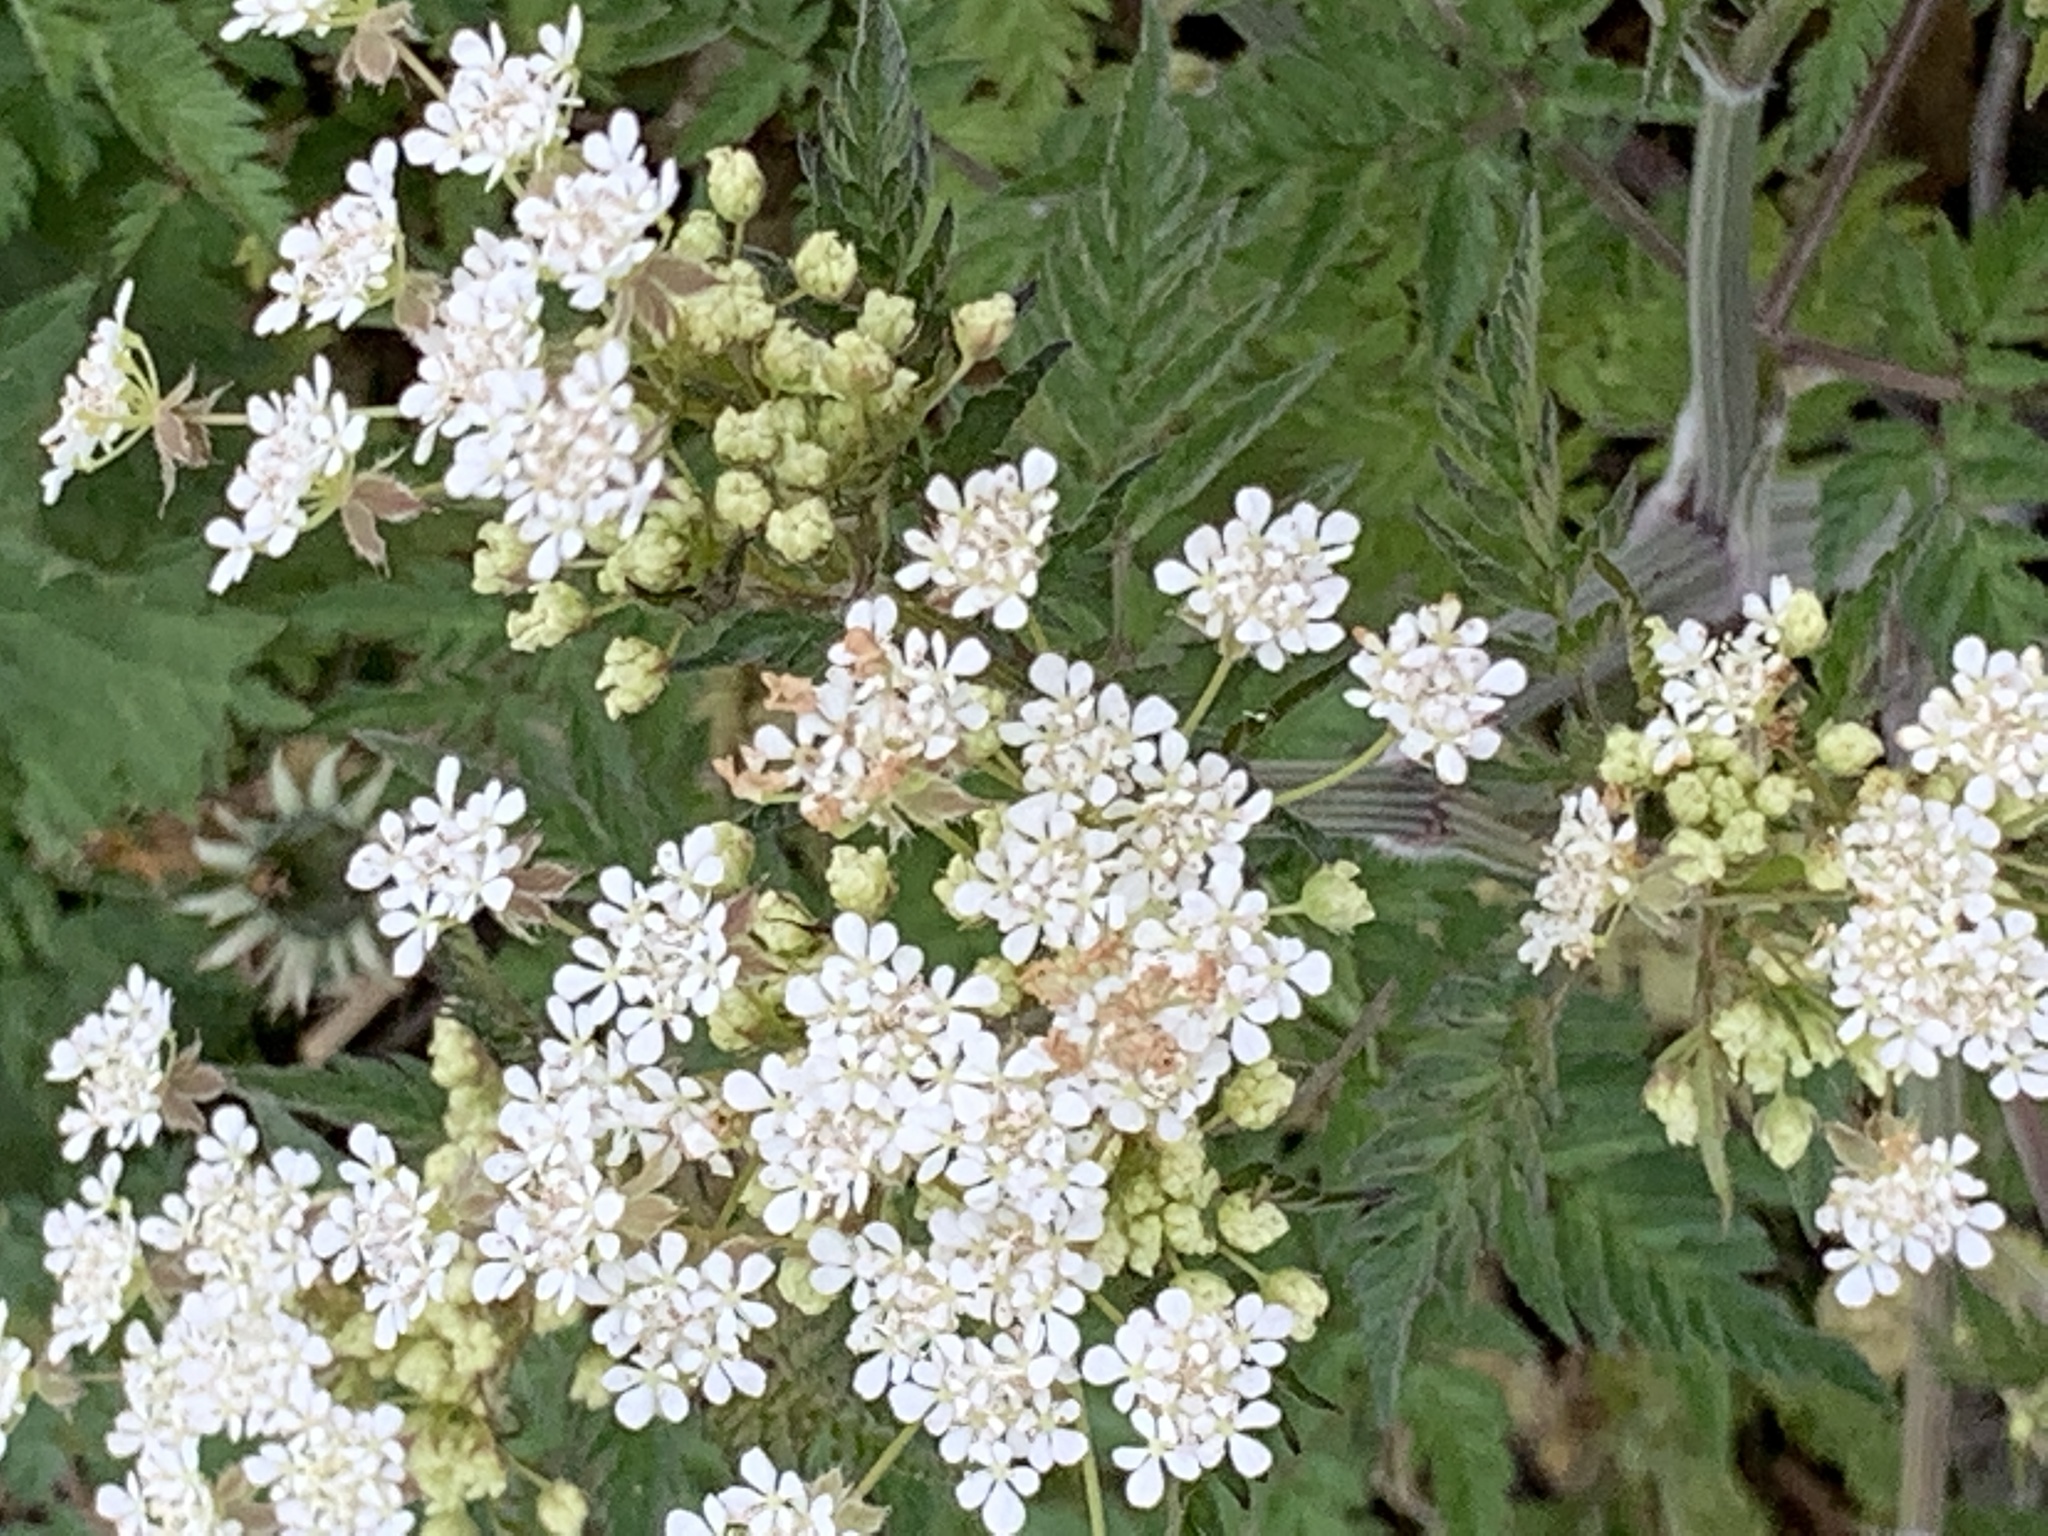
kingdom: Plantae
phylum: Tracheophyta
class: Magnoliopsida
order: Apiales
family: Apiaceae
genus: Anthriscus
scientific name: Anthriscus sylvestris
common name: Cow parsley
